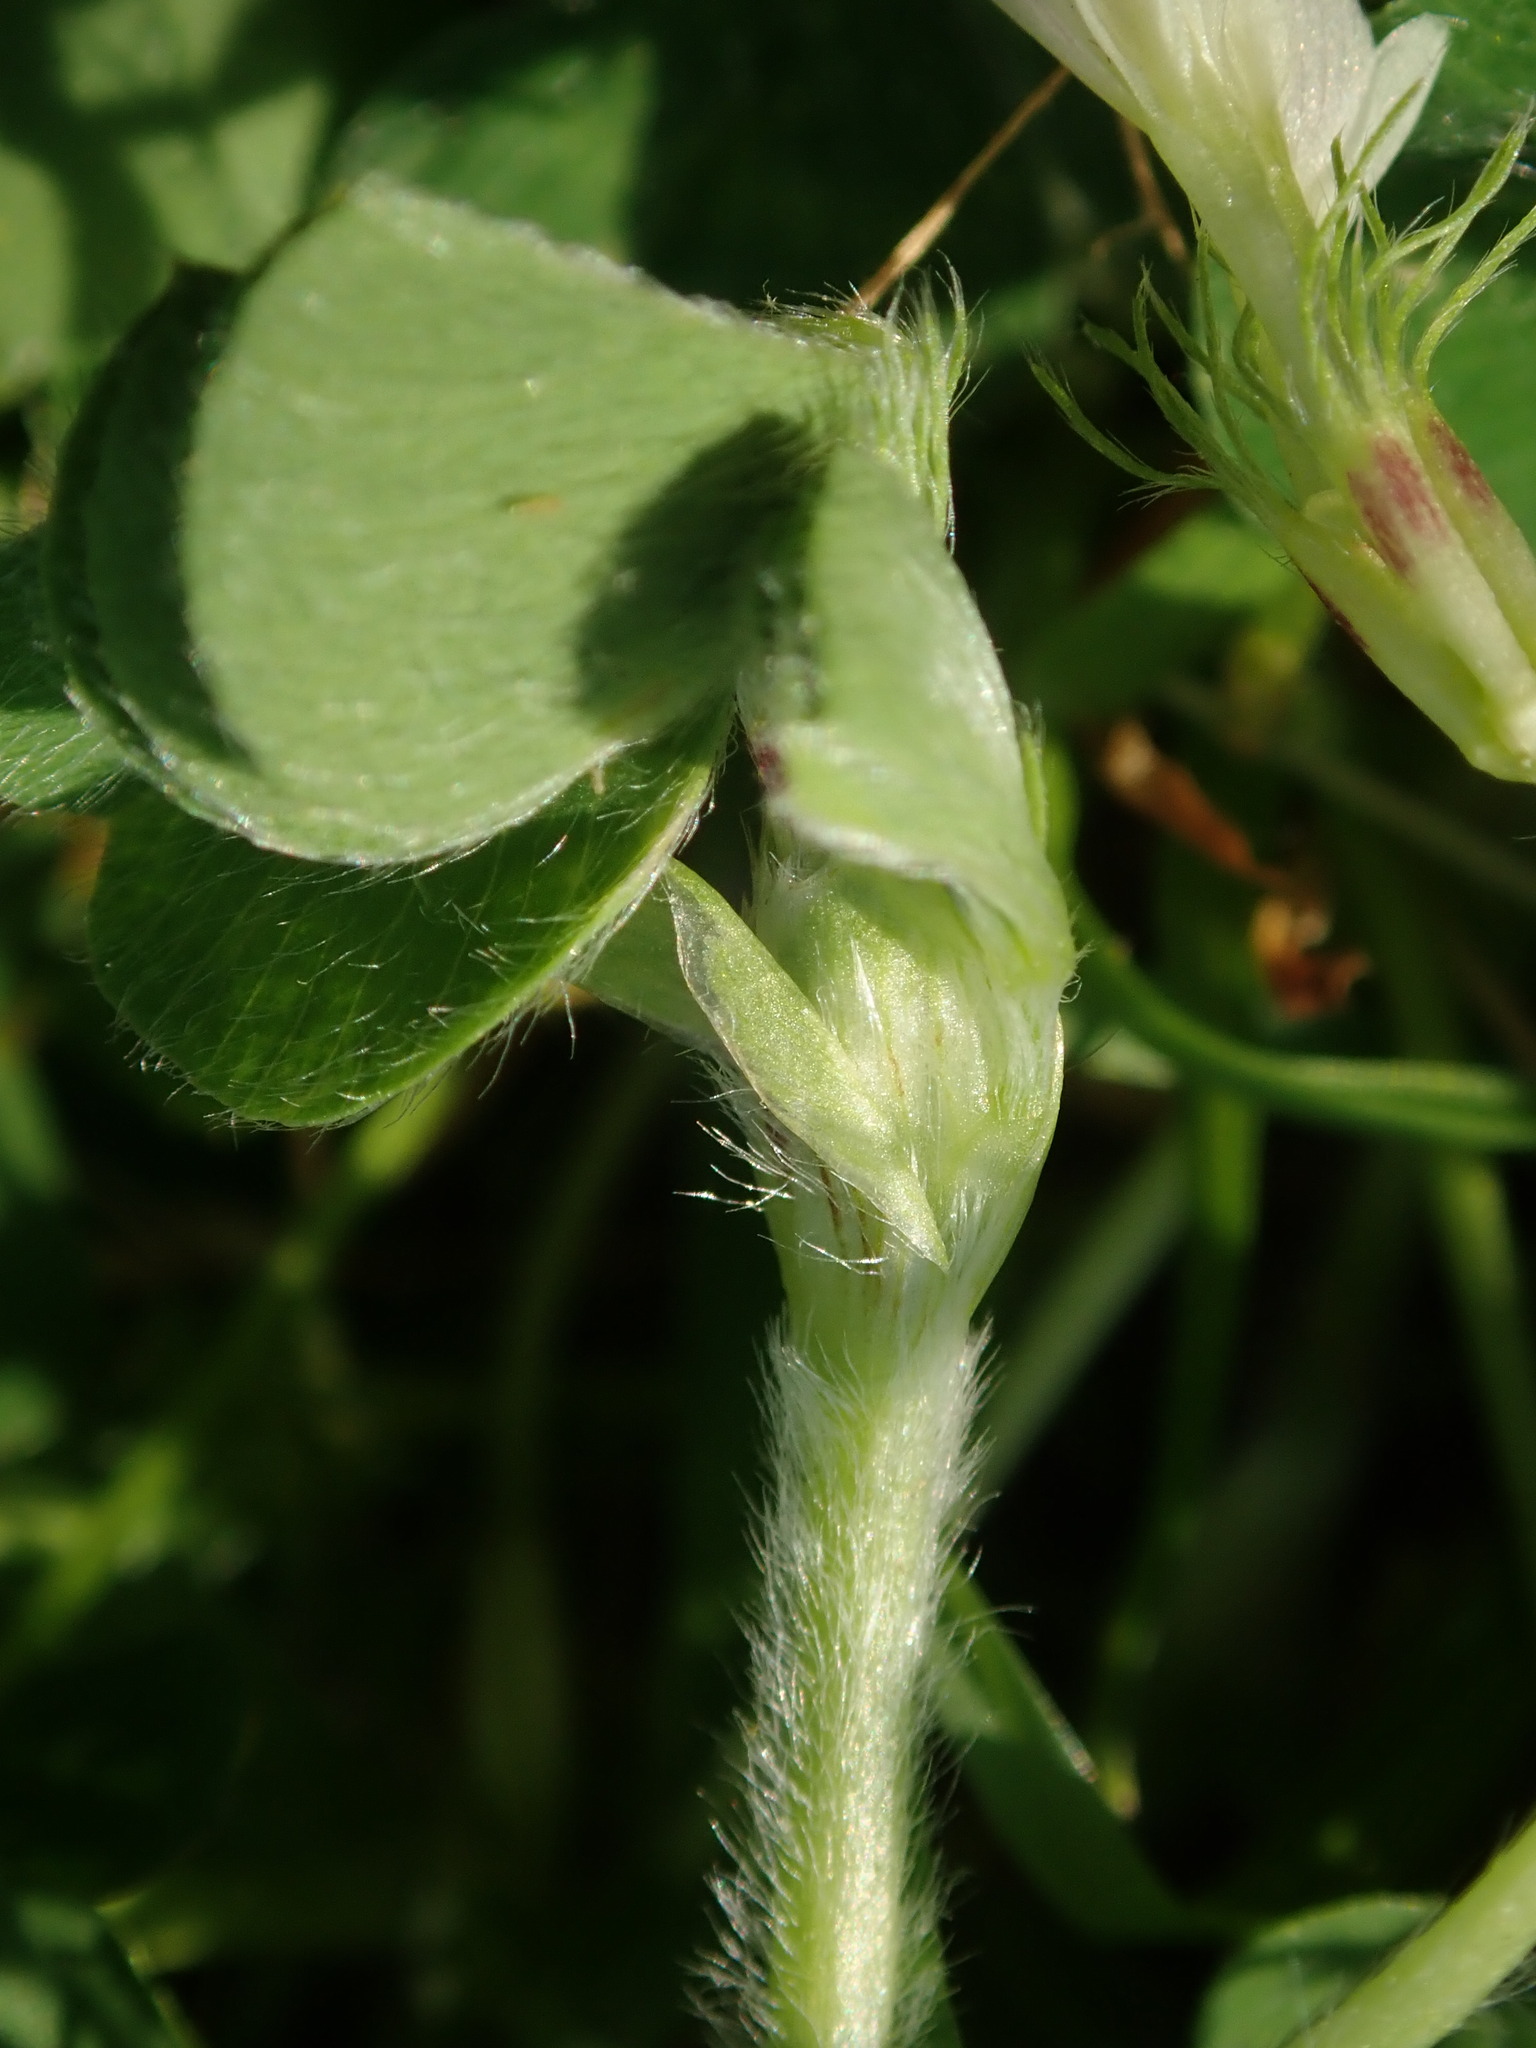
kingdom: Plantae
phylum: Tracheophyta
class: Magnoliopsida
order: Fabales
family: Fabaceae
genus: Trifolium
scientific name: Trifolium subterraneum
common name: Subterranean clover
